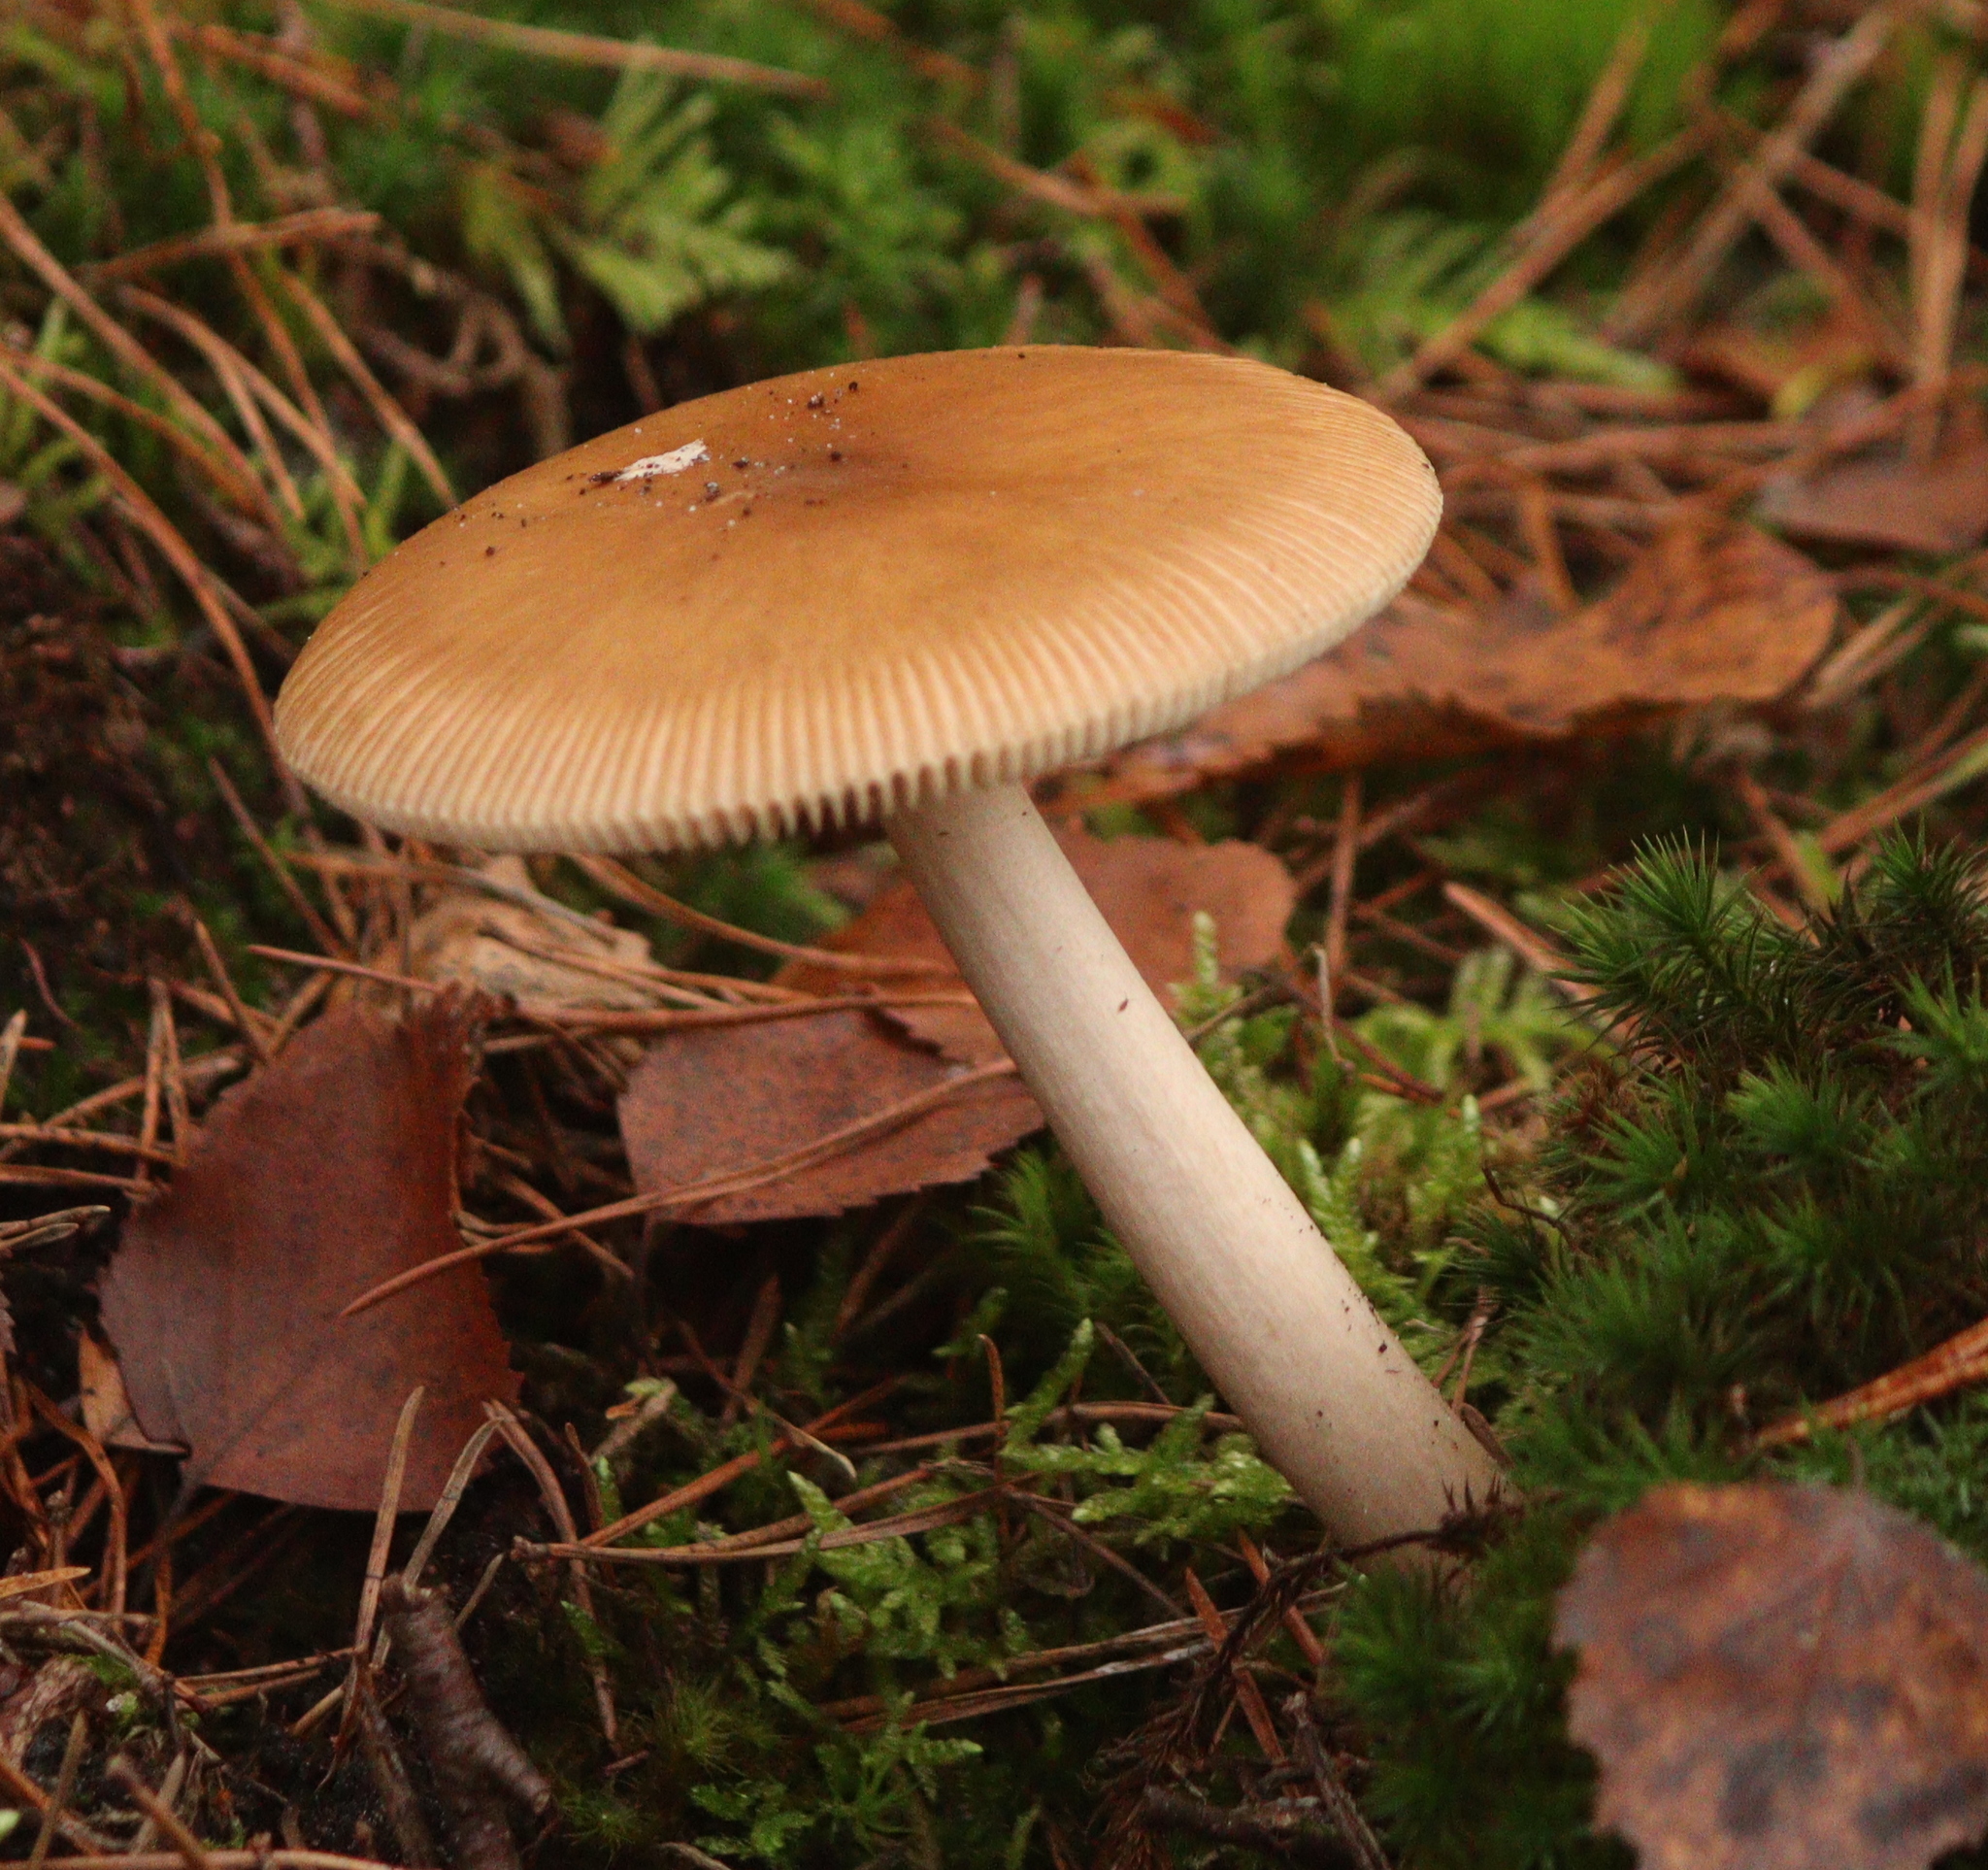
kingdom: Fungi
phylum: Basidiomycota
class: Agaricomycetes
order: Agaricales
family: Amanitaceae
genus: Amanita
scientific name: Amanita fulva
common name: Tawny grisette
